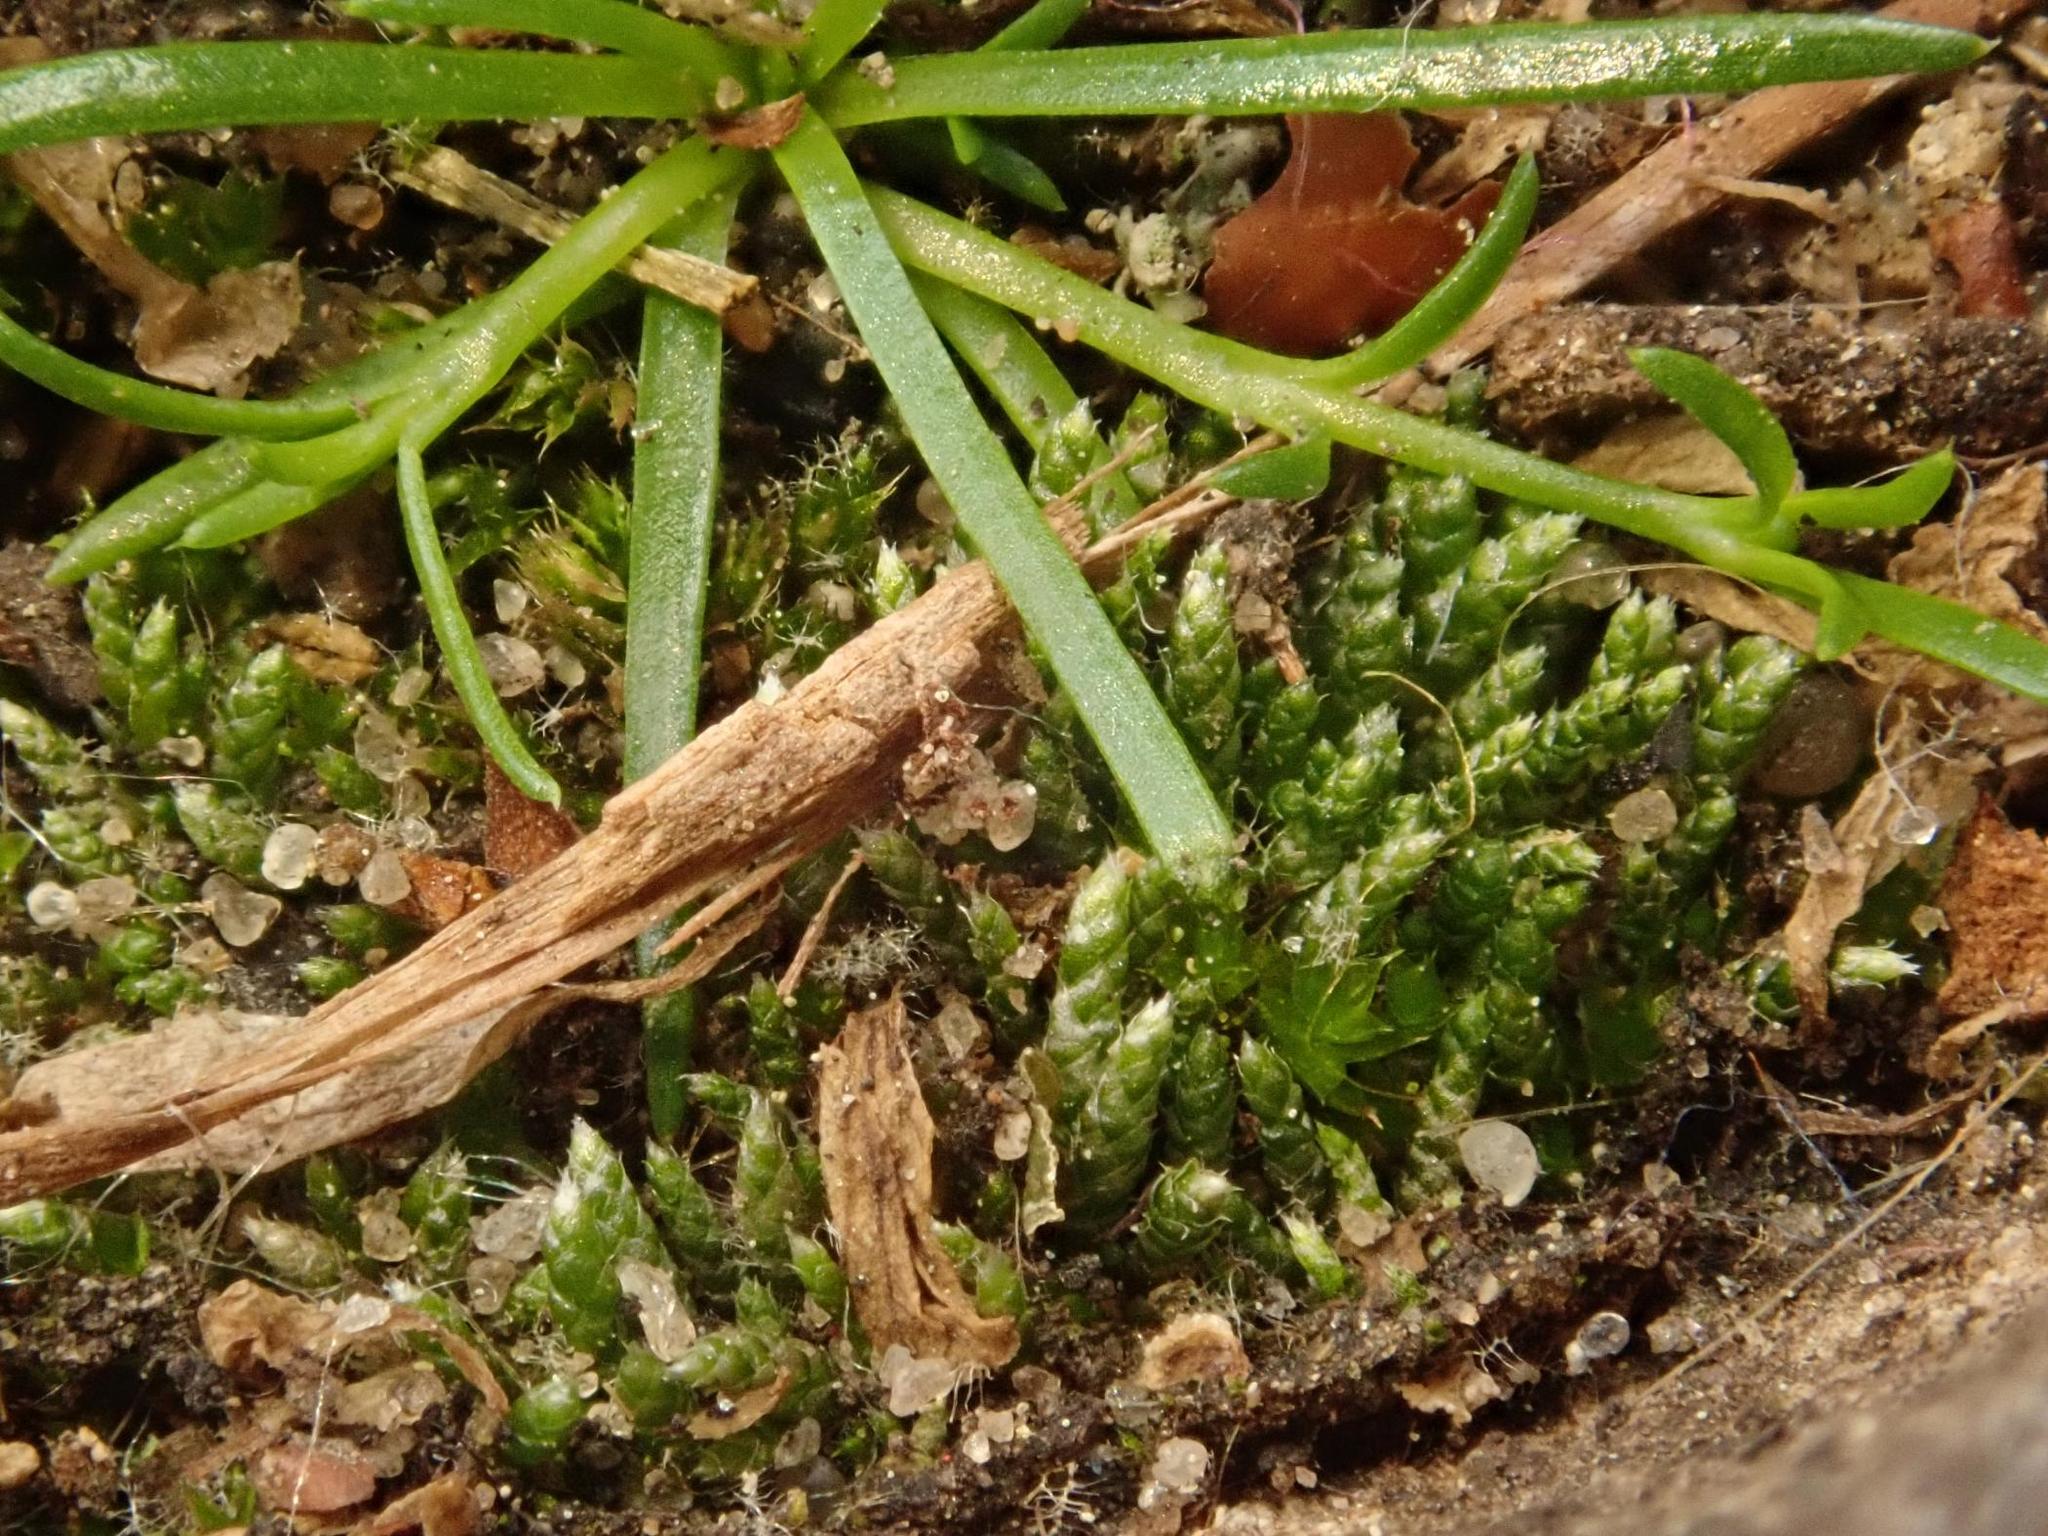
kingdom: Plantae
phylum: Bryophyta
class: Bryopsida
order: Bryales
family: Bryaceae
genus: Bryum
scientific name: Bryum argenteum
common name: Silver-moss
